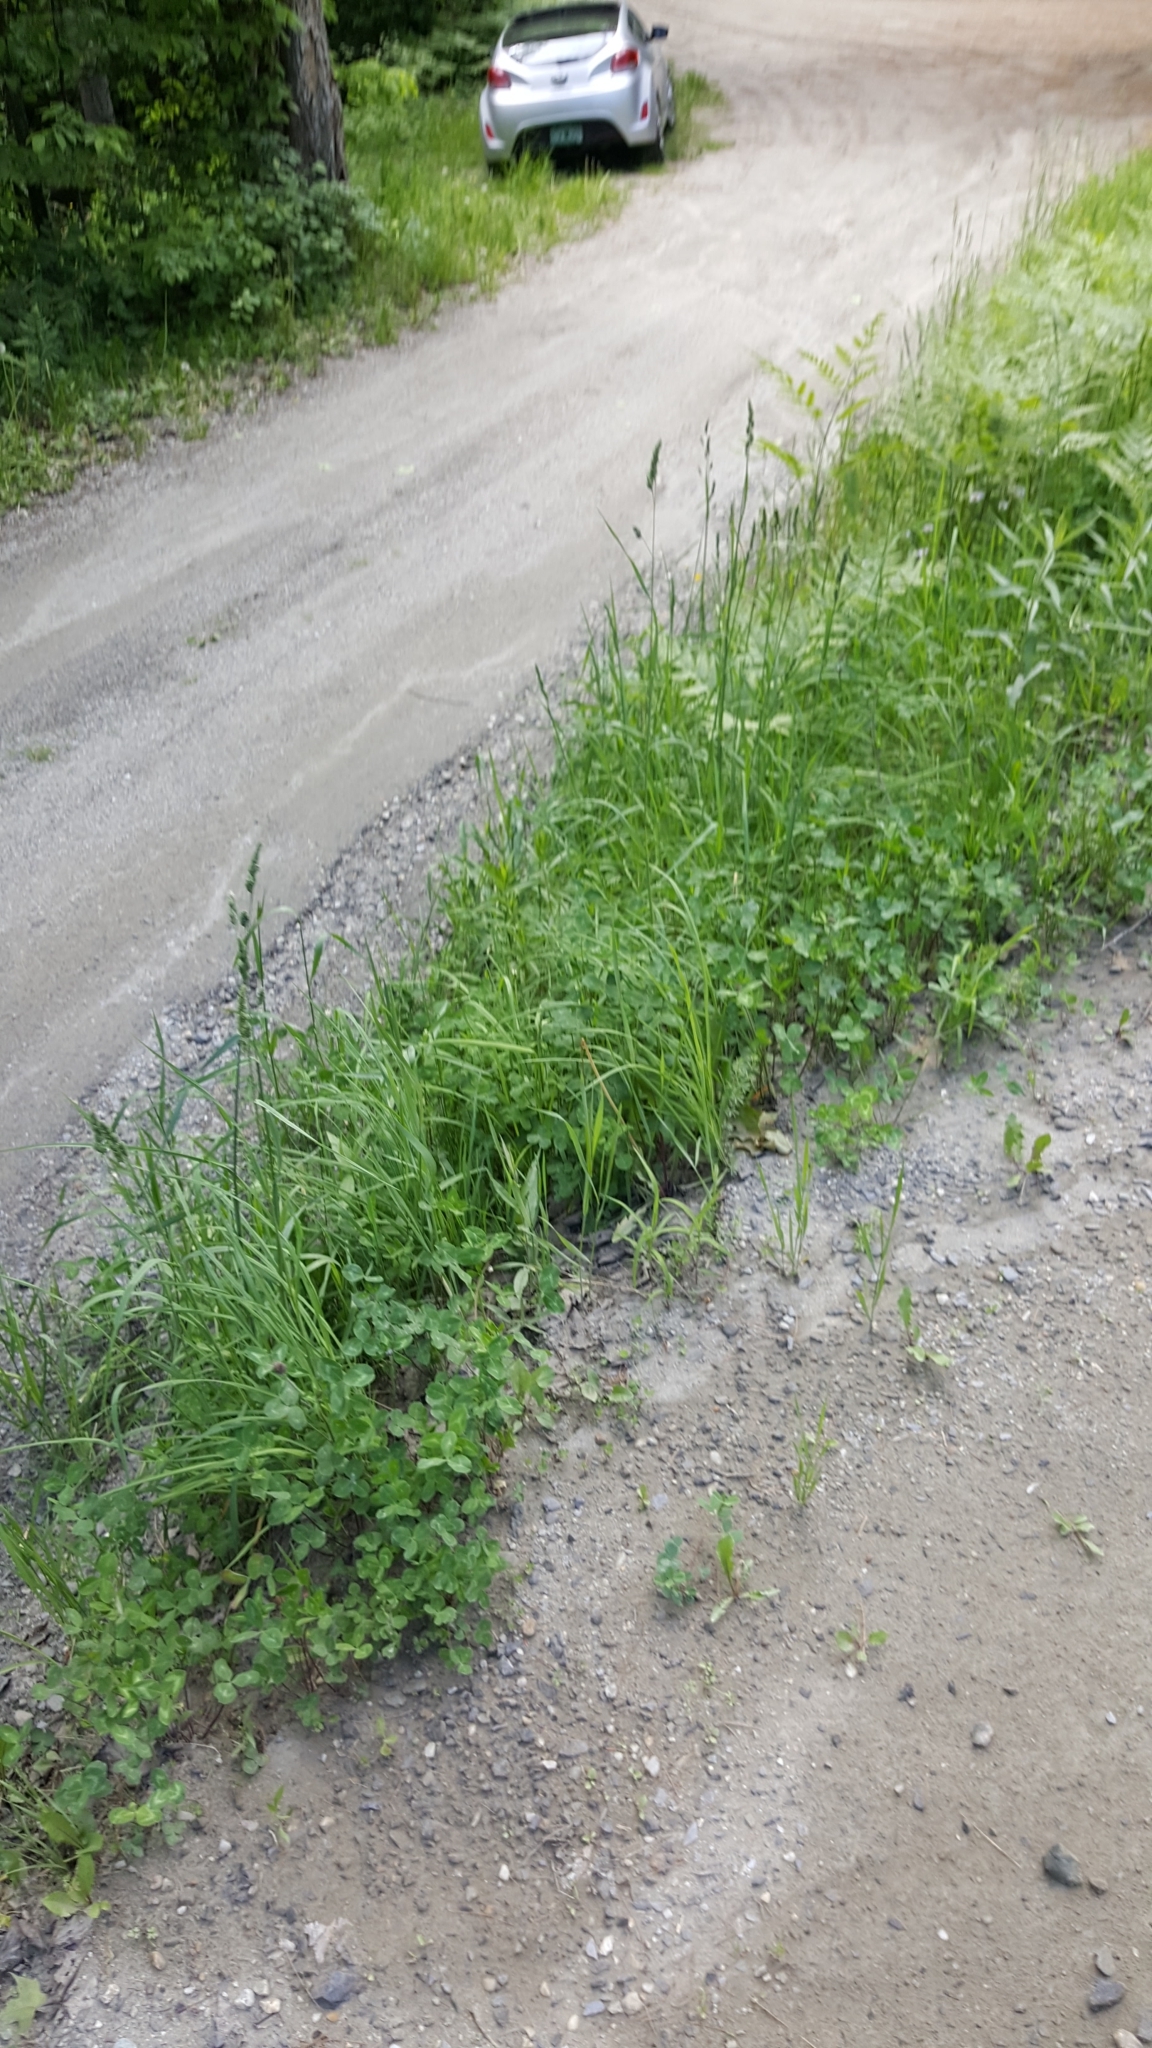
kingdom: Plantae
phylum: Tracheophyta
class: Liliopsida
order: Poales
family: Poaceae
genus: Dactylis
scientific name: Dactylis glomerata
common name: Orchardgrass
